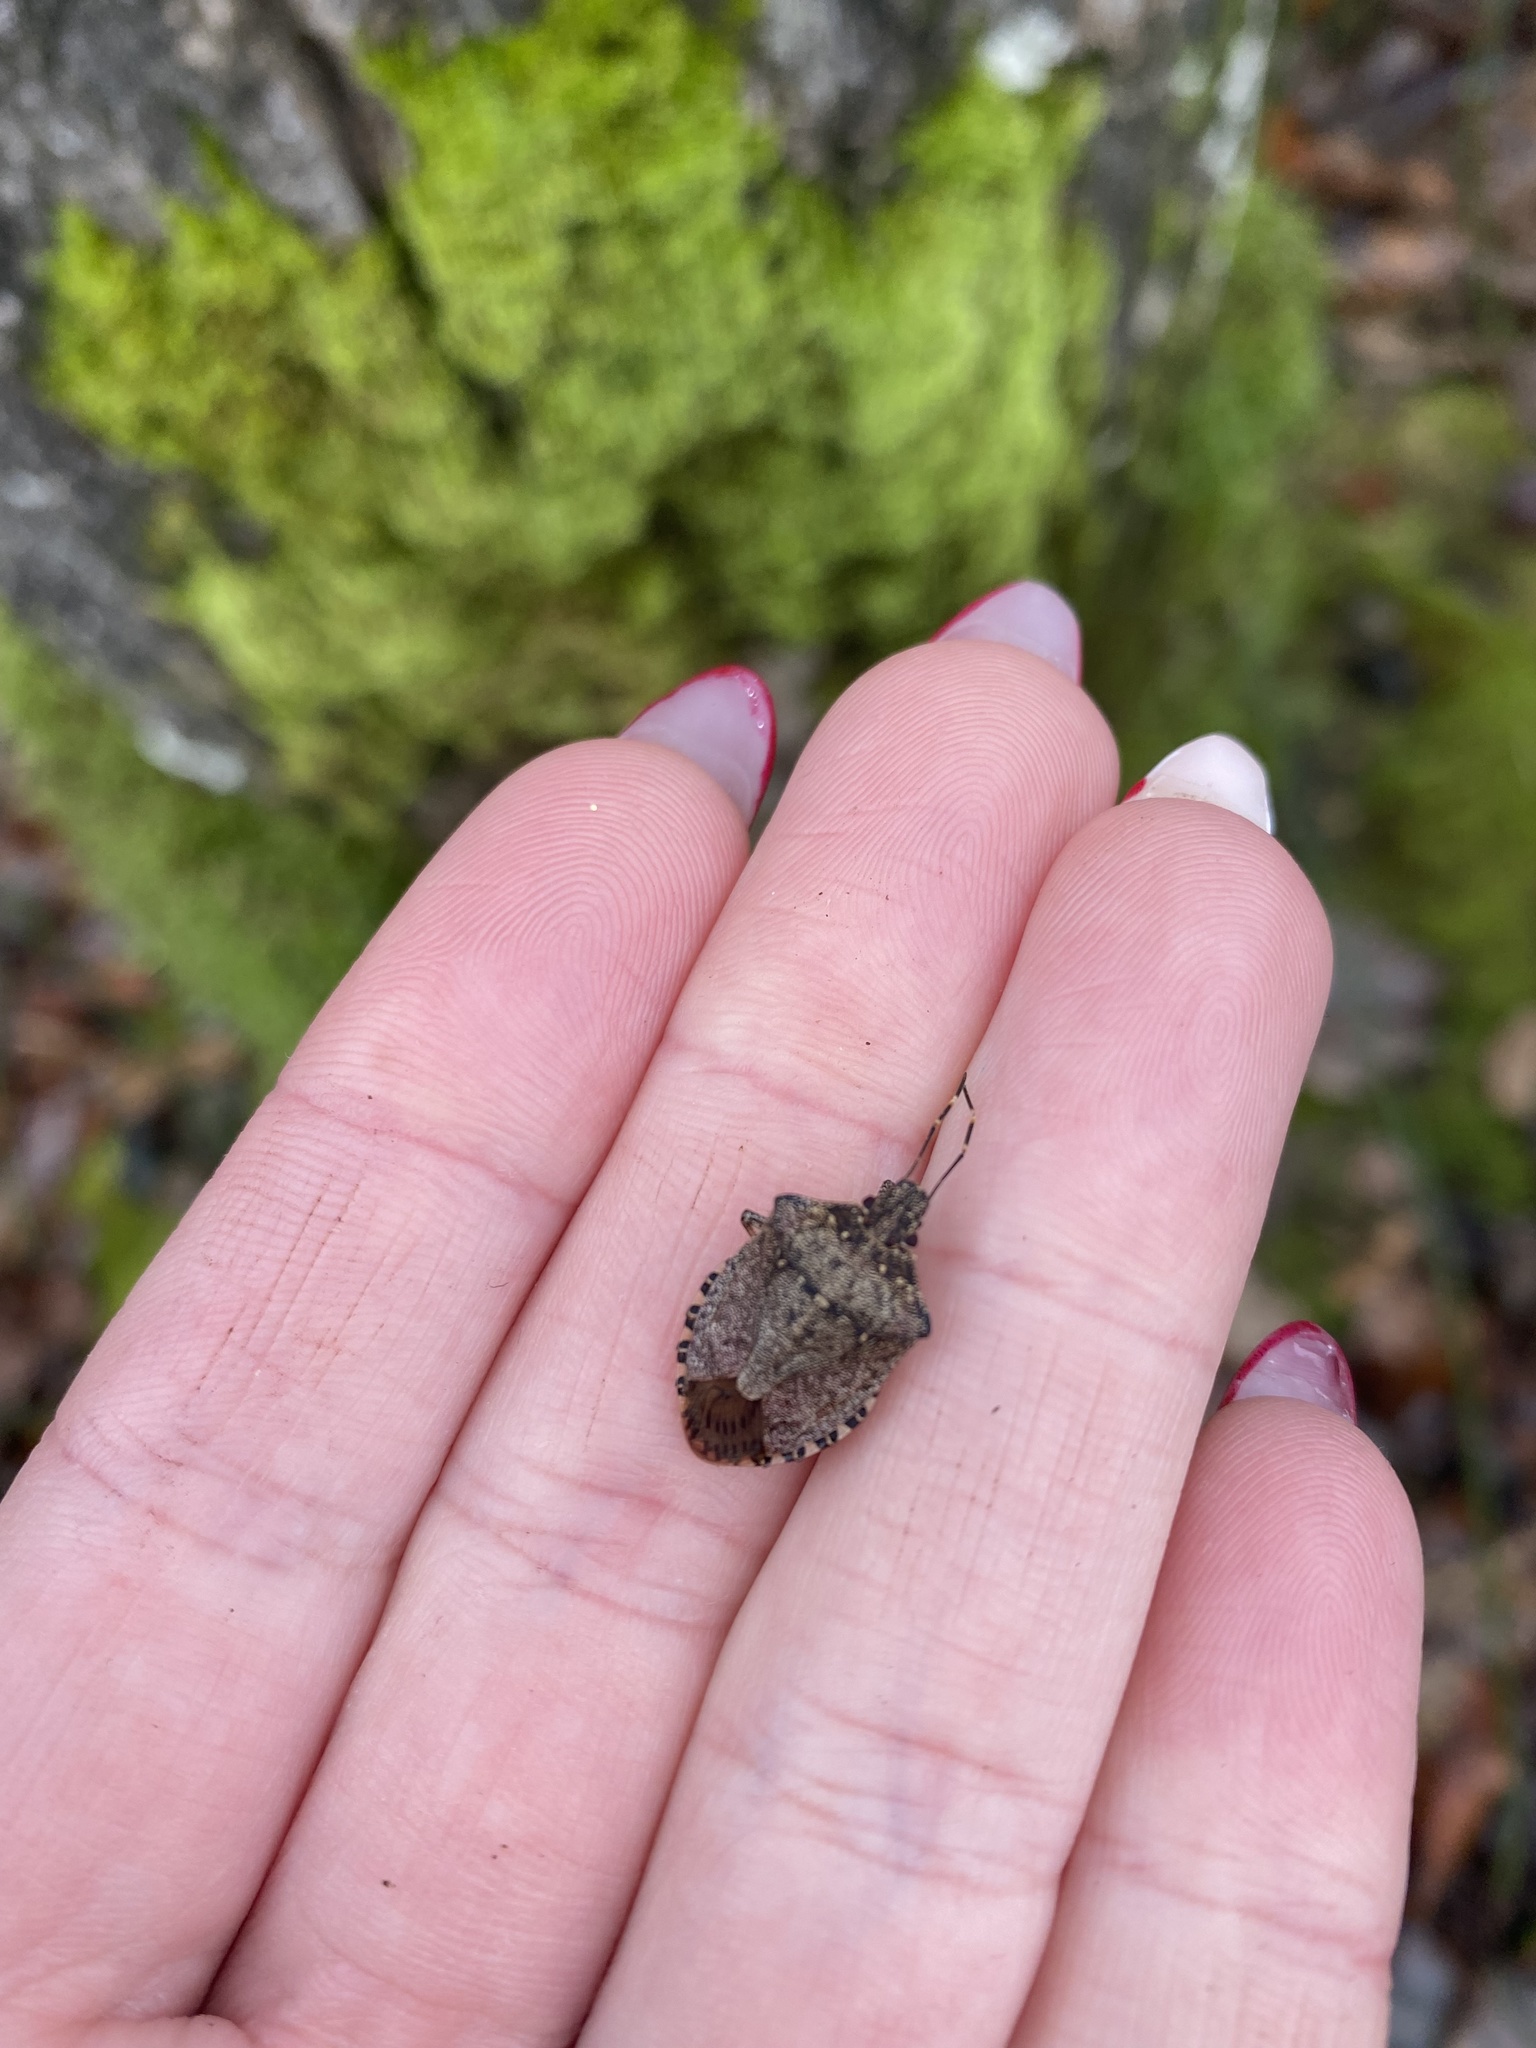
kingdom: Animalia
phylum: Arthropoda
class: Insecta
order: Hemiptera
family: Pentatomidae
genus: Halyomorpha
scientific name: Halyomorpha halys
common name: Brown marmorated stink bug
